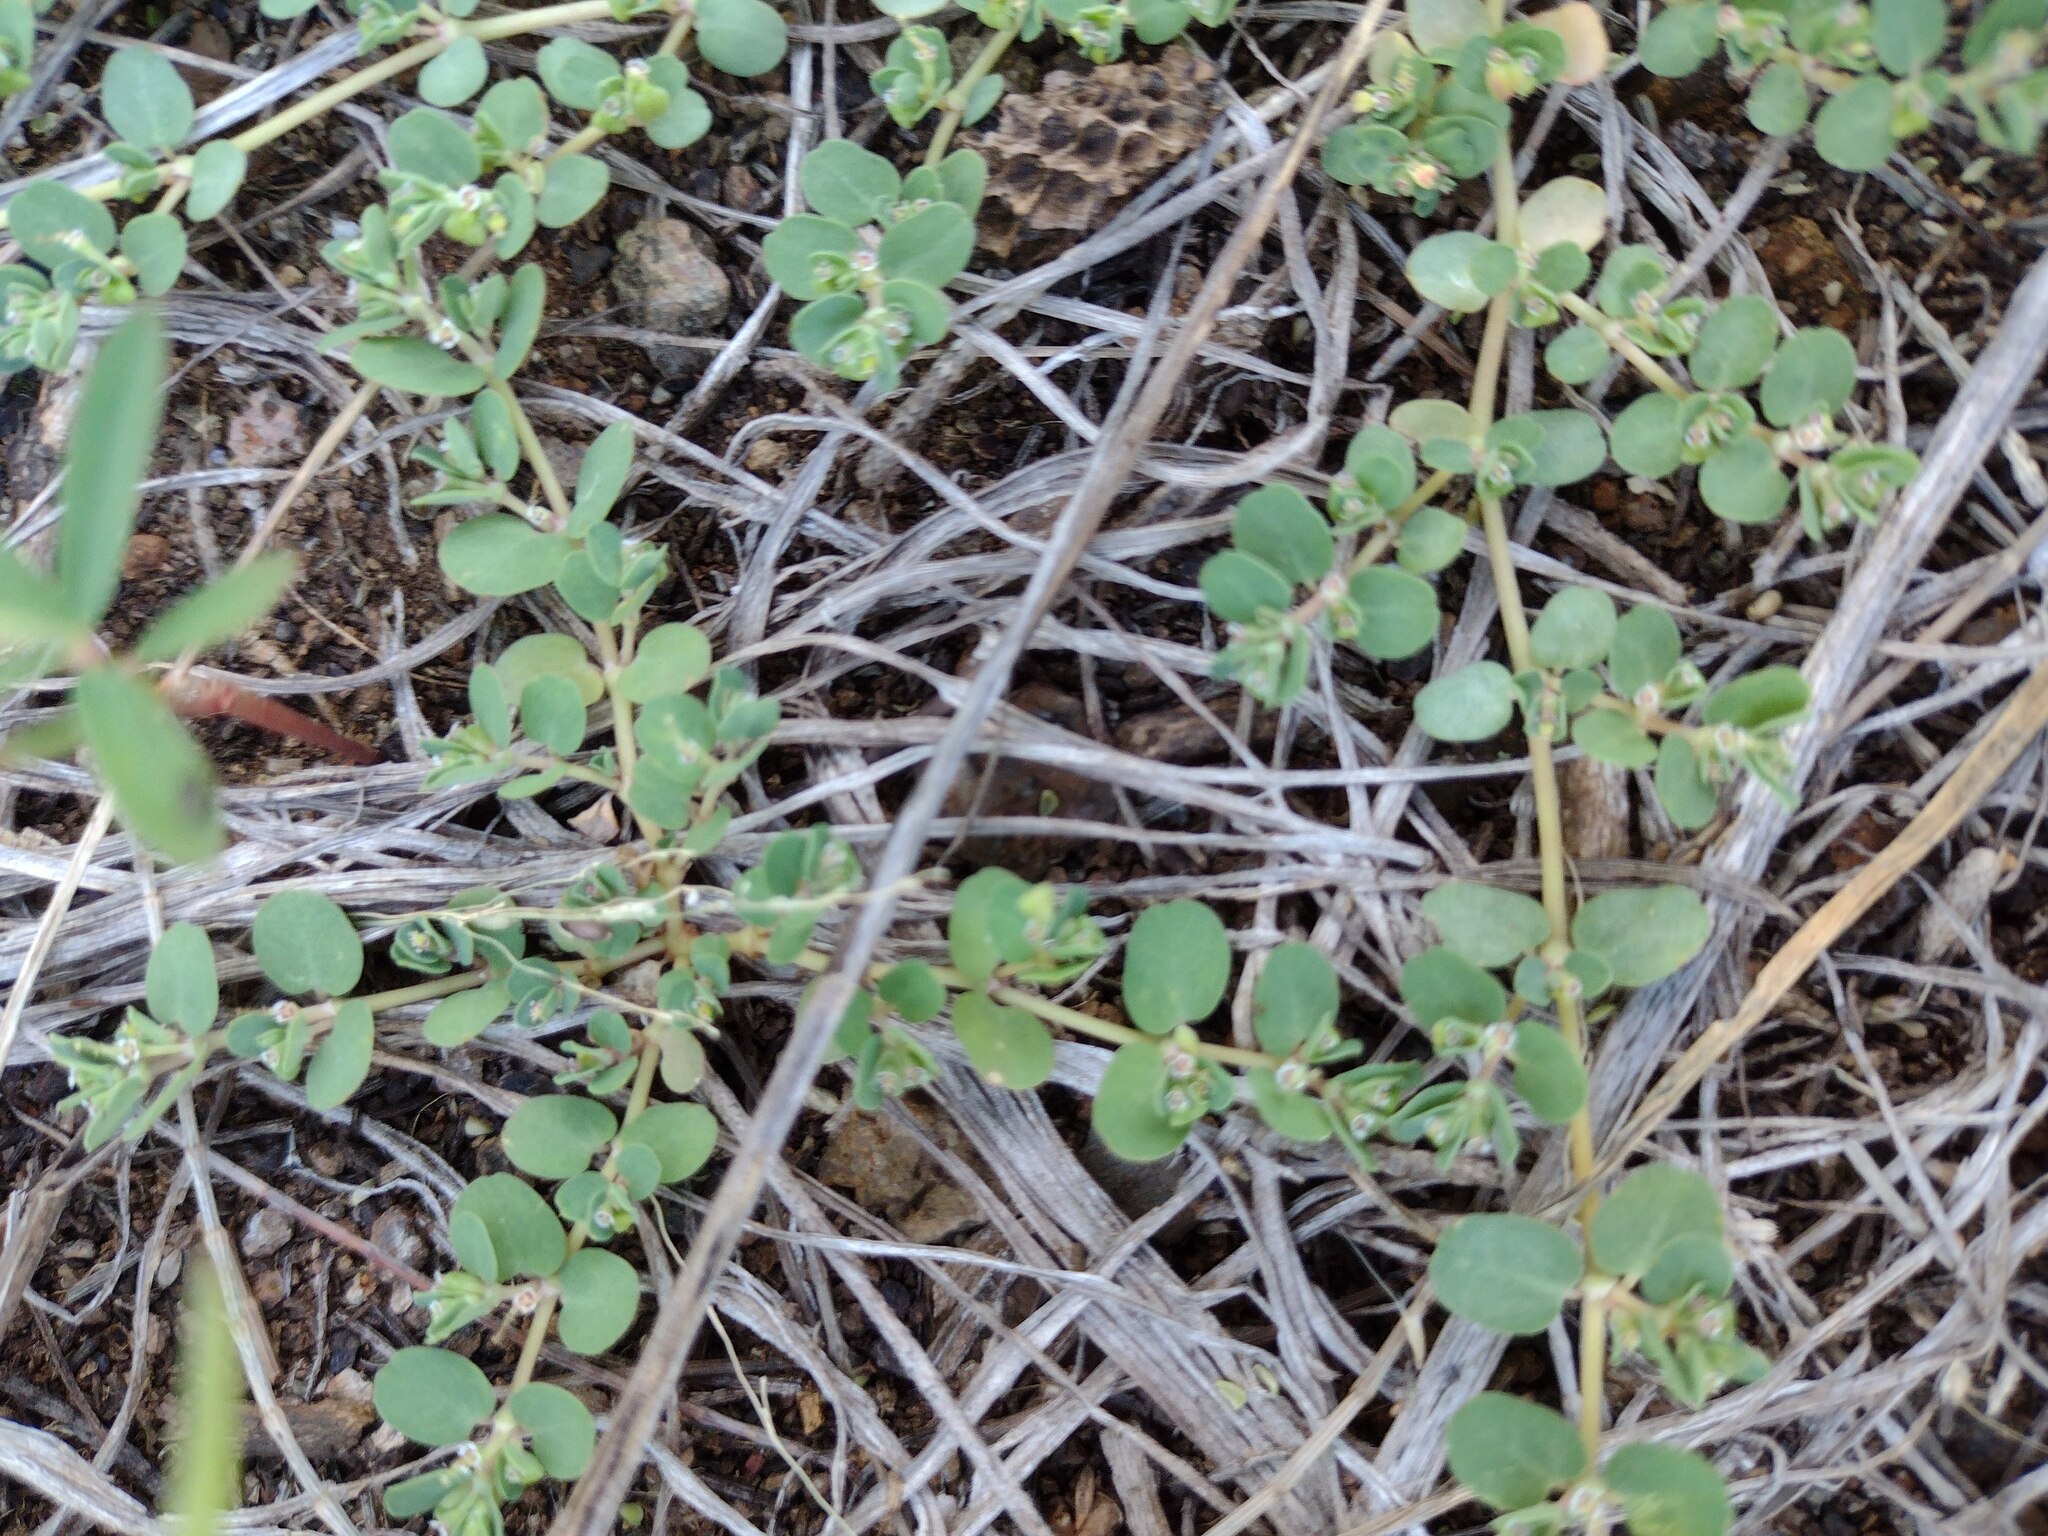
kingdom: Plantae
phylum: Tracheophyta
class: Magnoliopsida
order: Malpighiales
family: Euphorbiaceae
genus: Euphorbia
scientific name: Euphorbia serpens
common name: Matted sandmat
